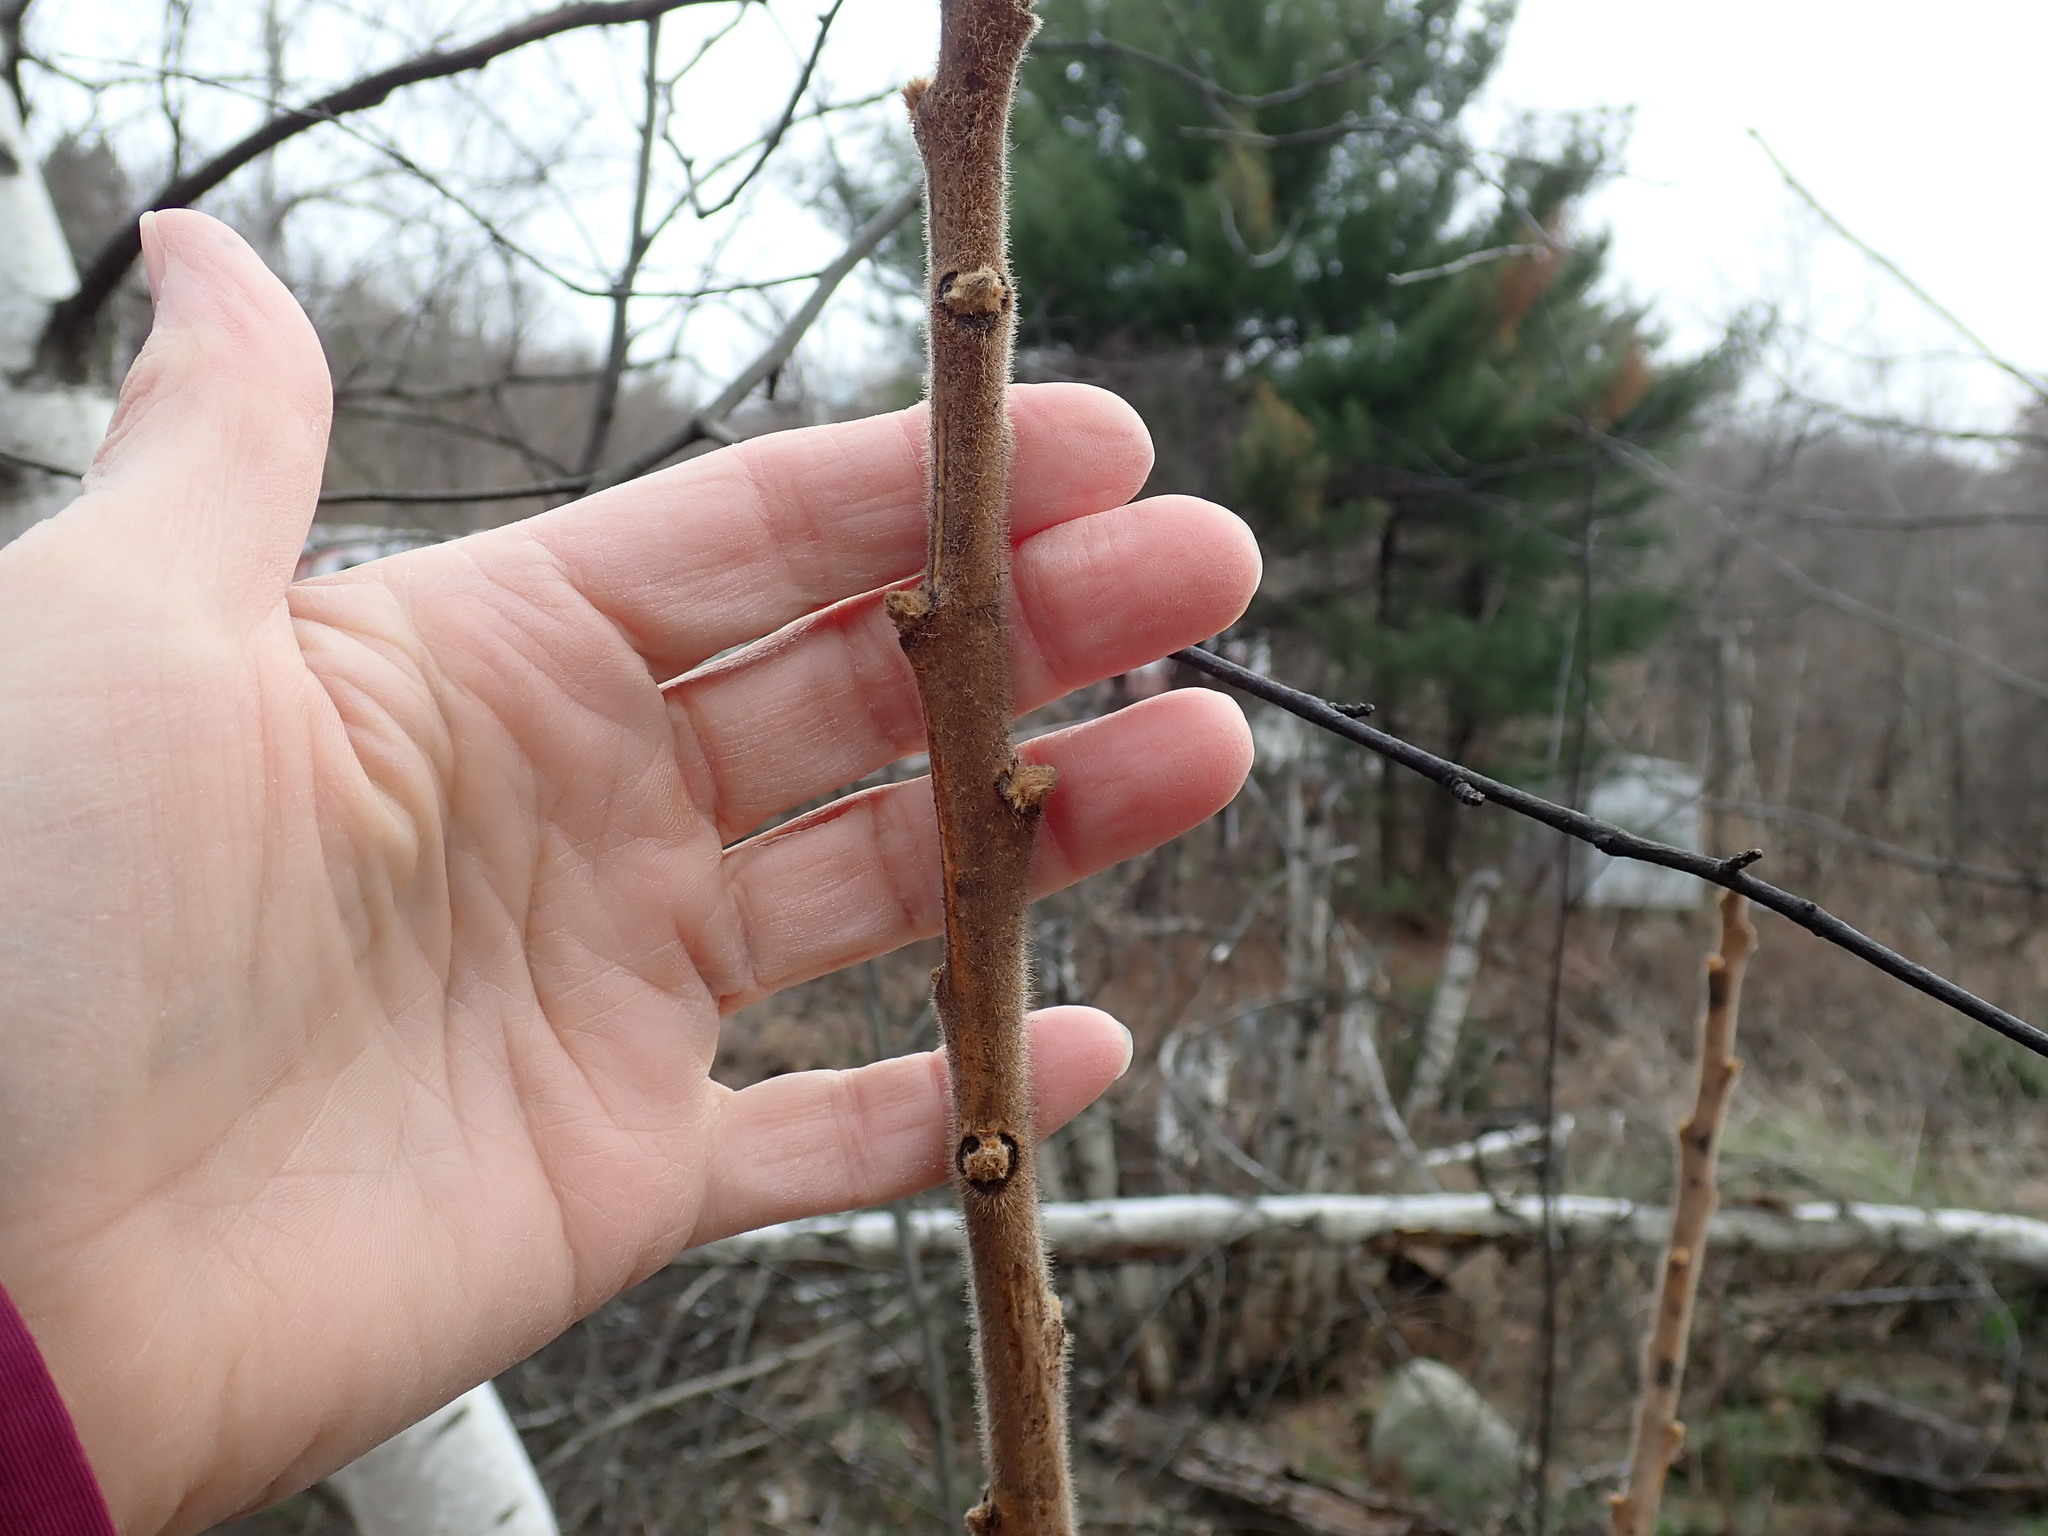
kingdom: Plantae
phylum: Tracheophyta
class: Magnoliopsida
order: Sapindales
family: Anacardiaceae
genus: Rhus
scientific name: Rhus typhina
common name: Staghorn sumac
